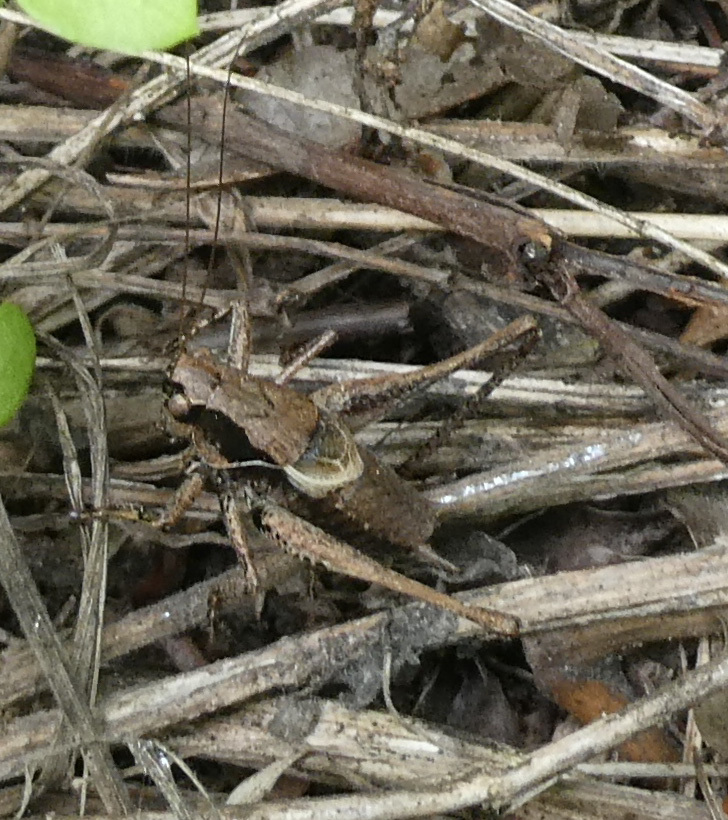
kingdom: Animalia
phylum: Arthropoda
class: Insecta
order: Orthoptera
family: Tettigoniidae
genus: Pholidoptera
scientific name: Pholidoptera griseoaptera
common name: Dark bush-cricket
